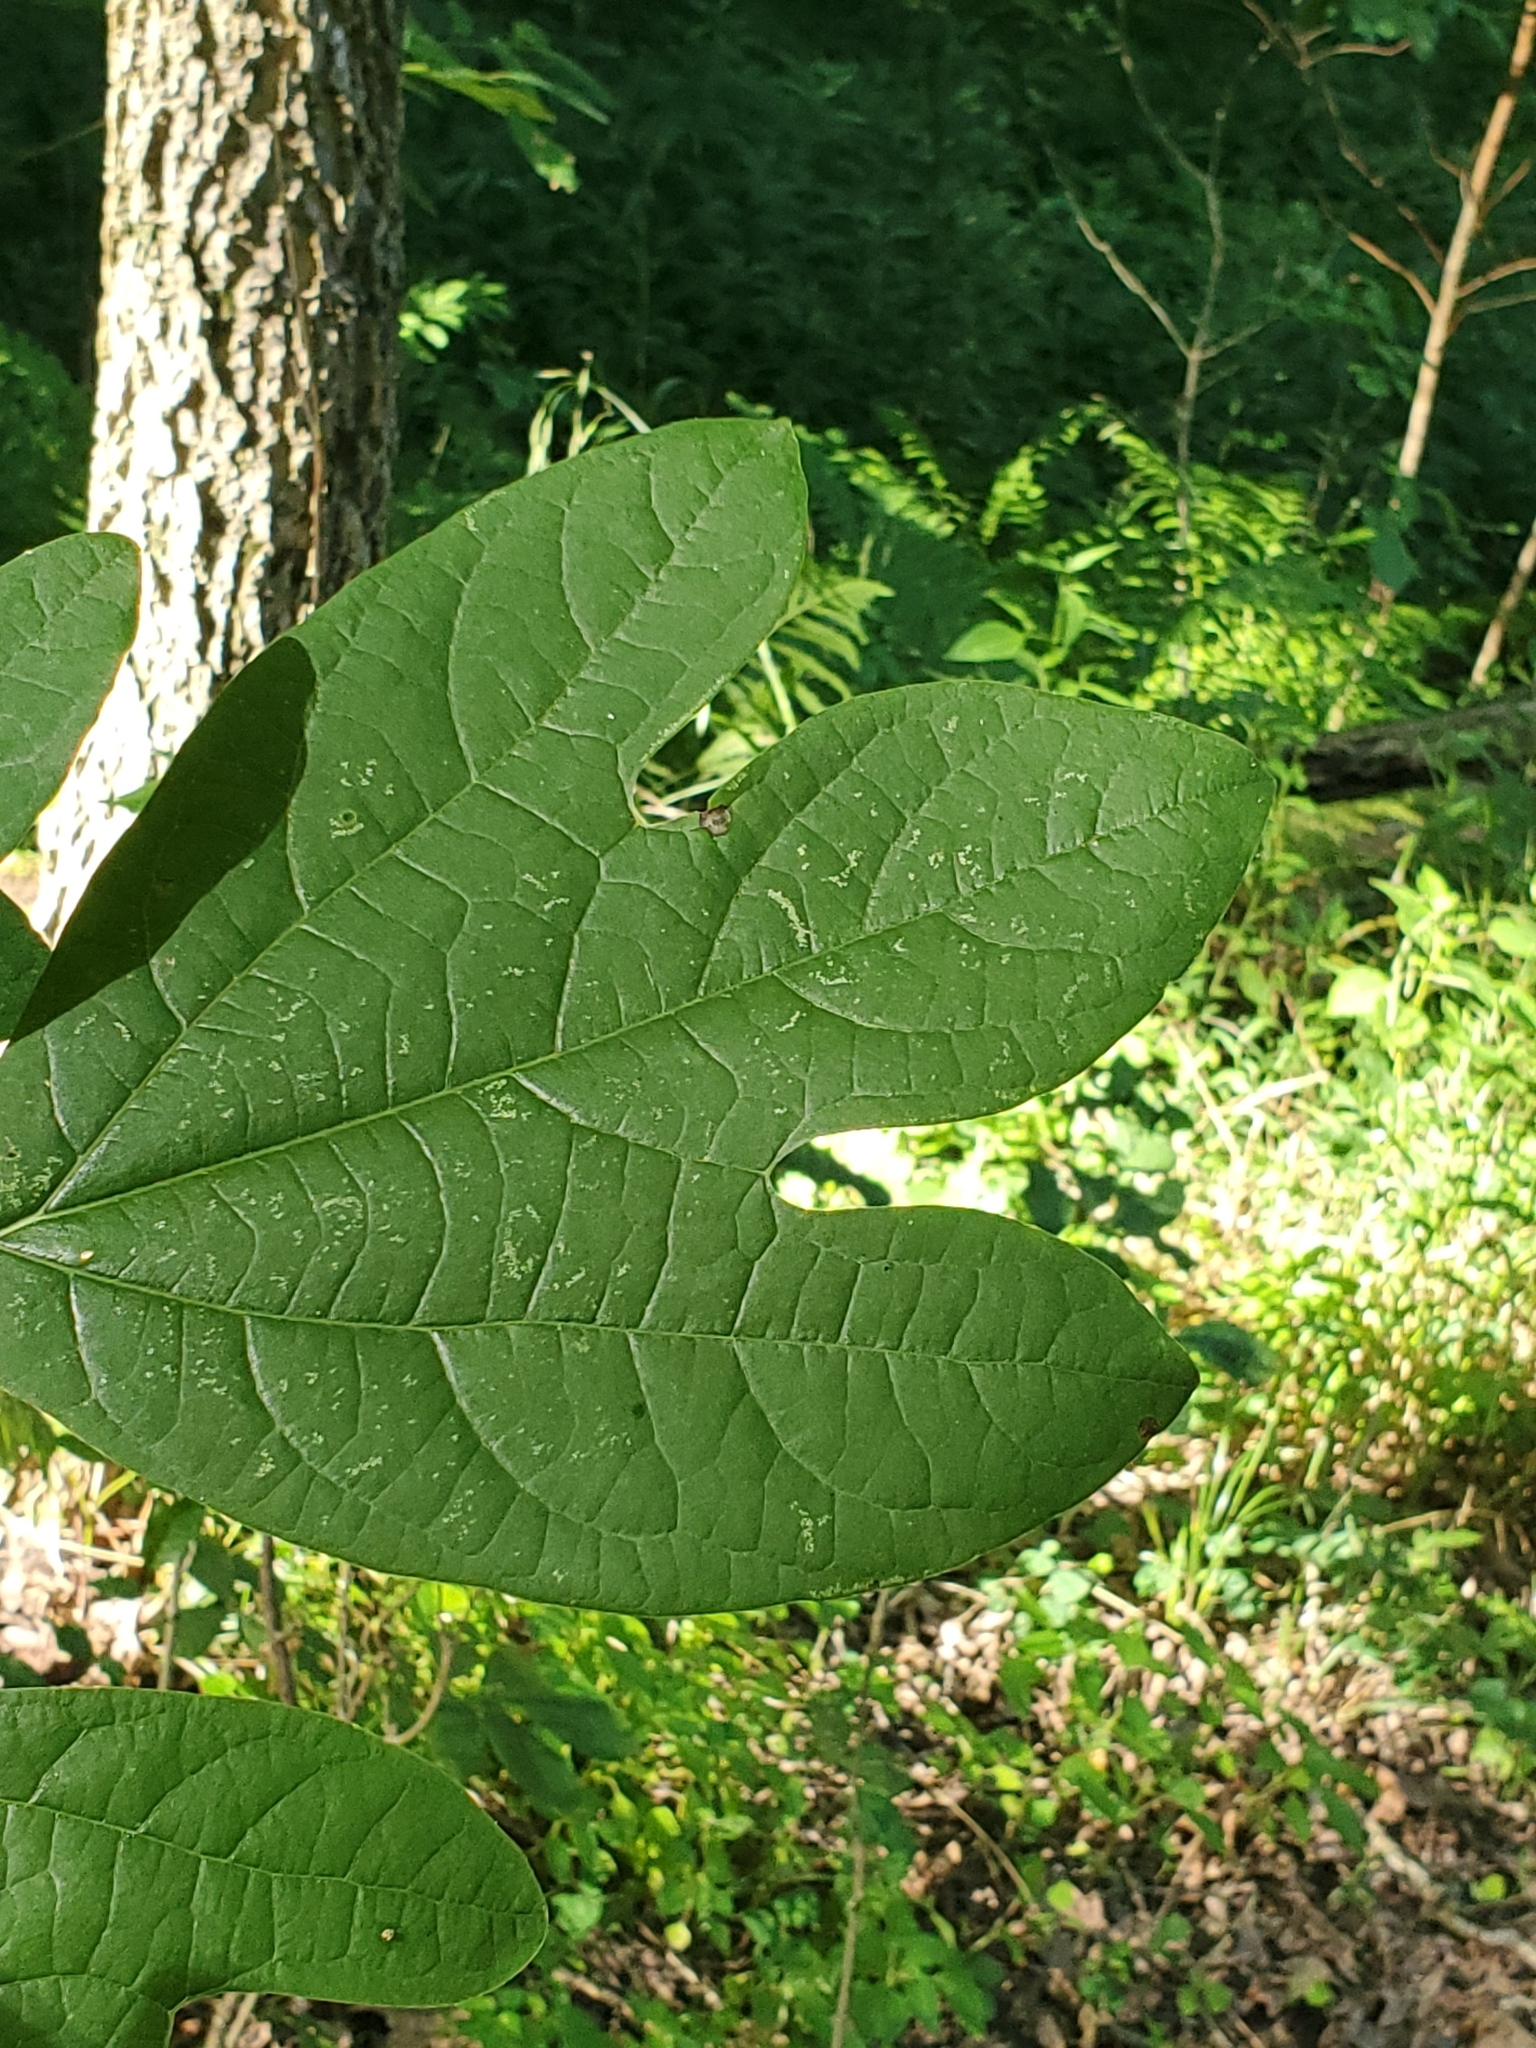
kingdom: Plantae
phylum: Tracheophyta
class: Magnoliopsida
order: Laurales
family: Lauraceae
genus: Sassafras
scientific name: Sassafras albidum
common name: Sassafras
